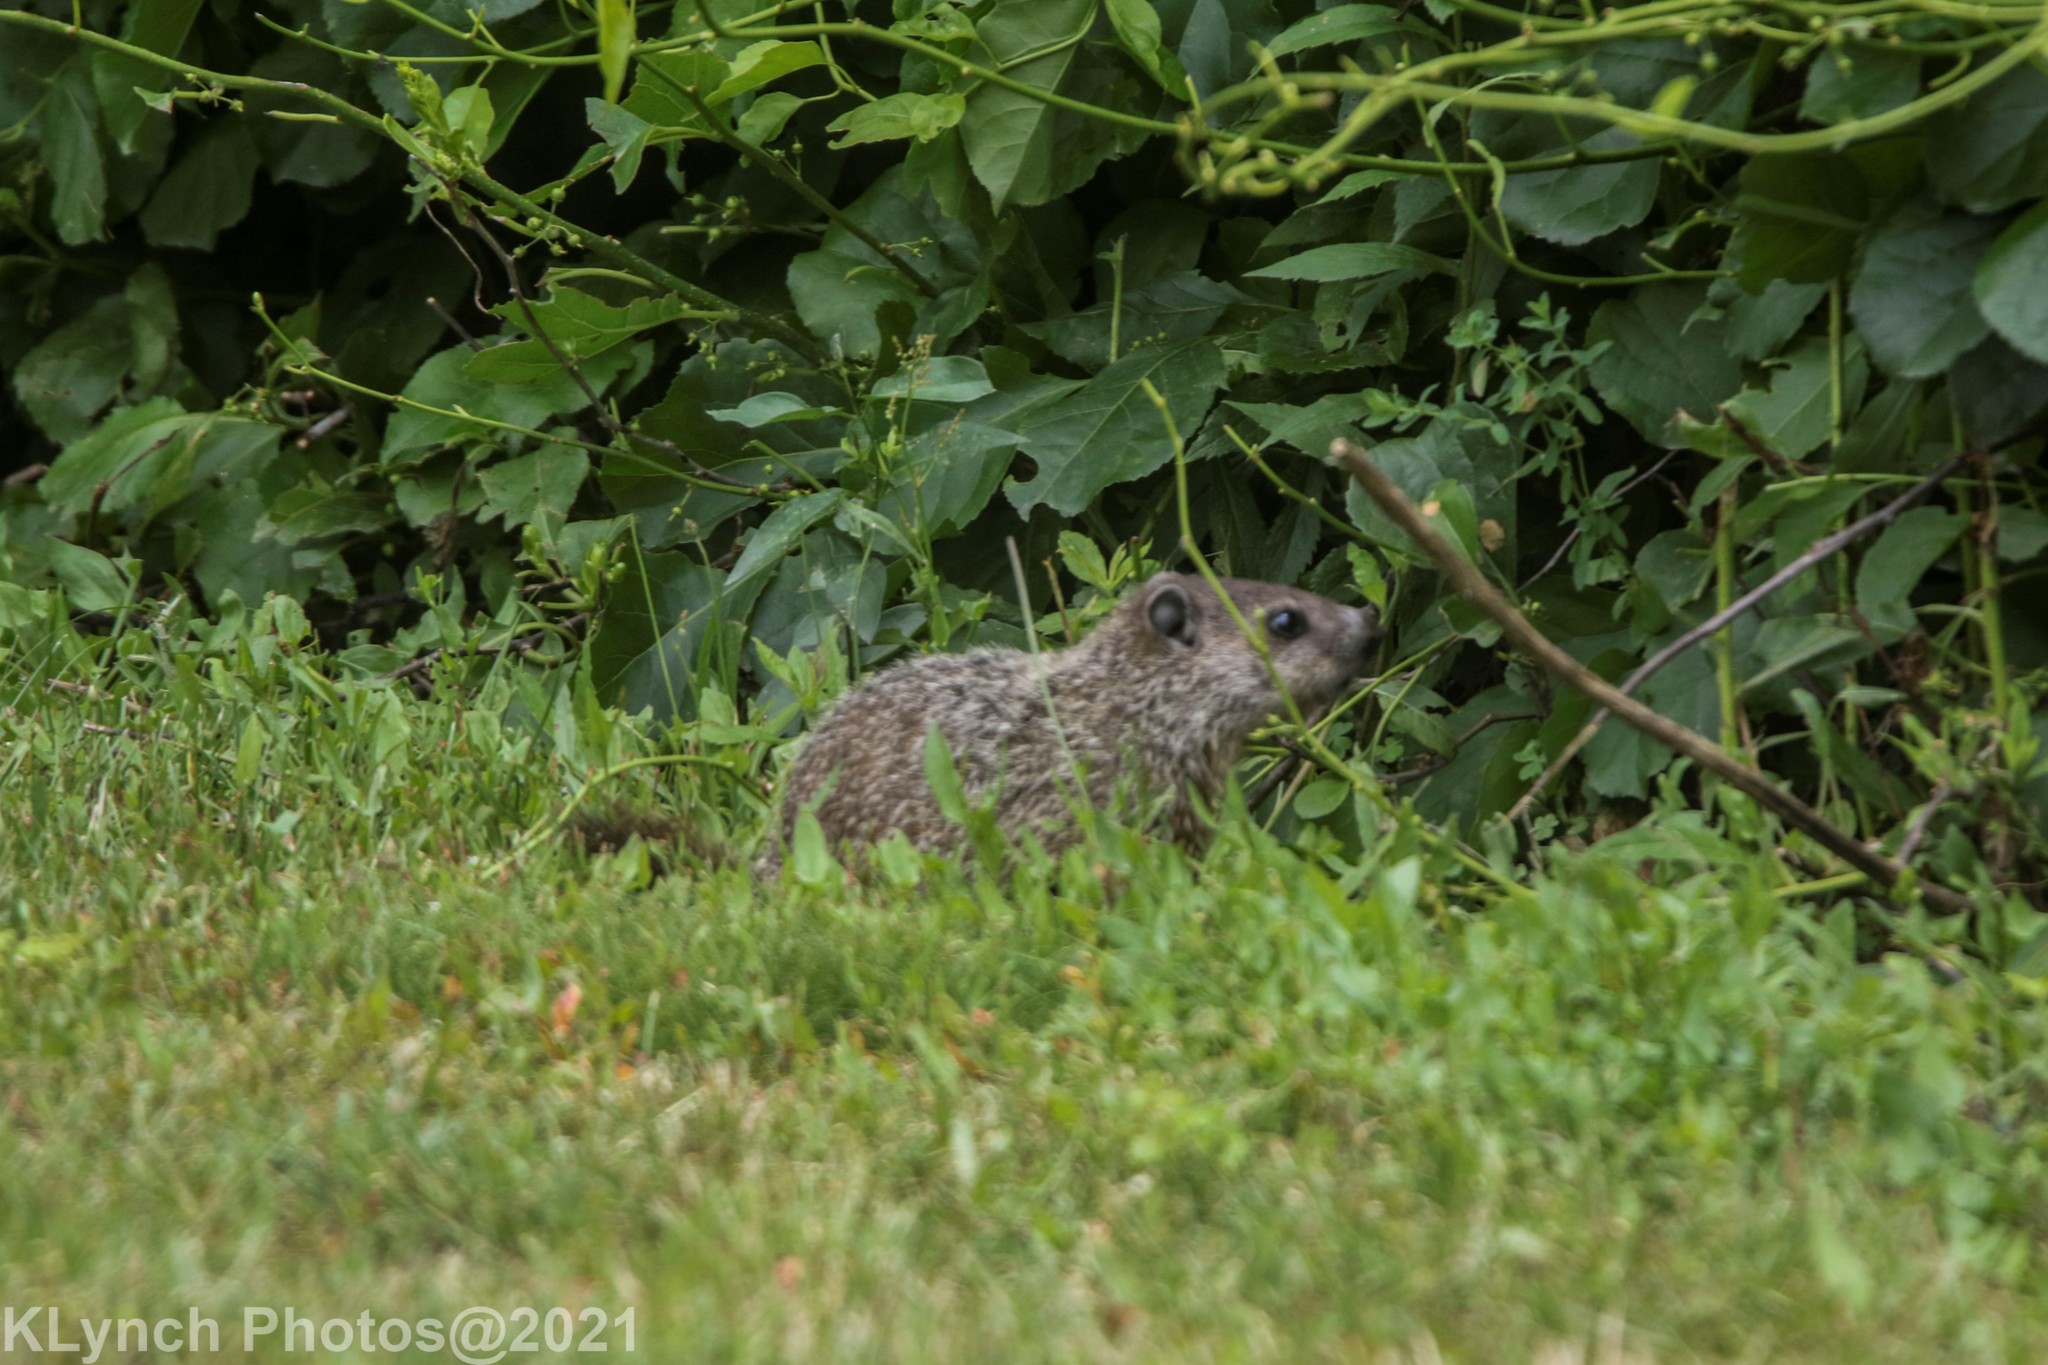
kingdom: Animalia
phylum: Chordata
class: Mammalia
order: Rodentia
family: Sciuridae
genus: Marmota
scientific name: Marmota monax
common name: Groundhog
